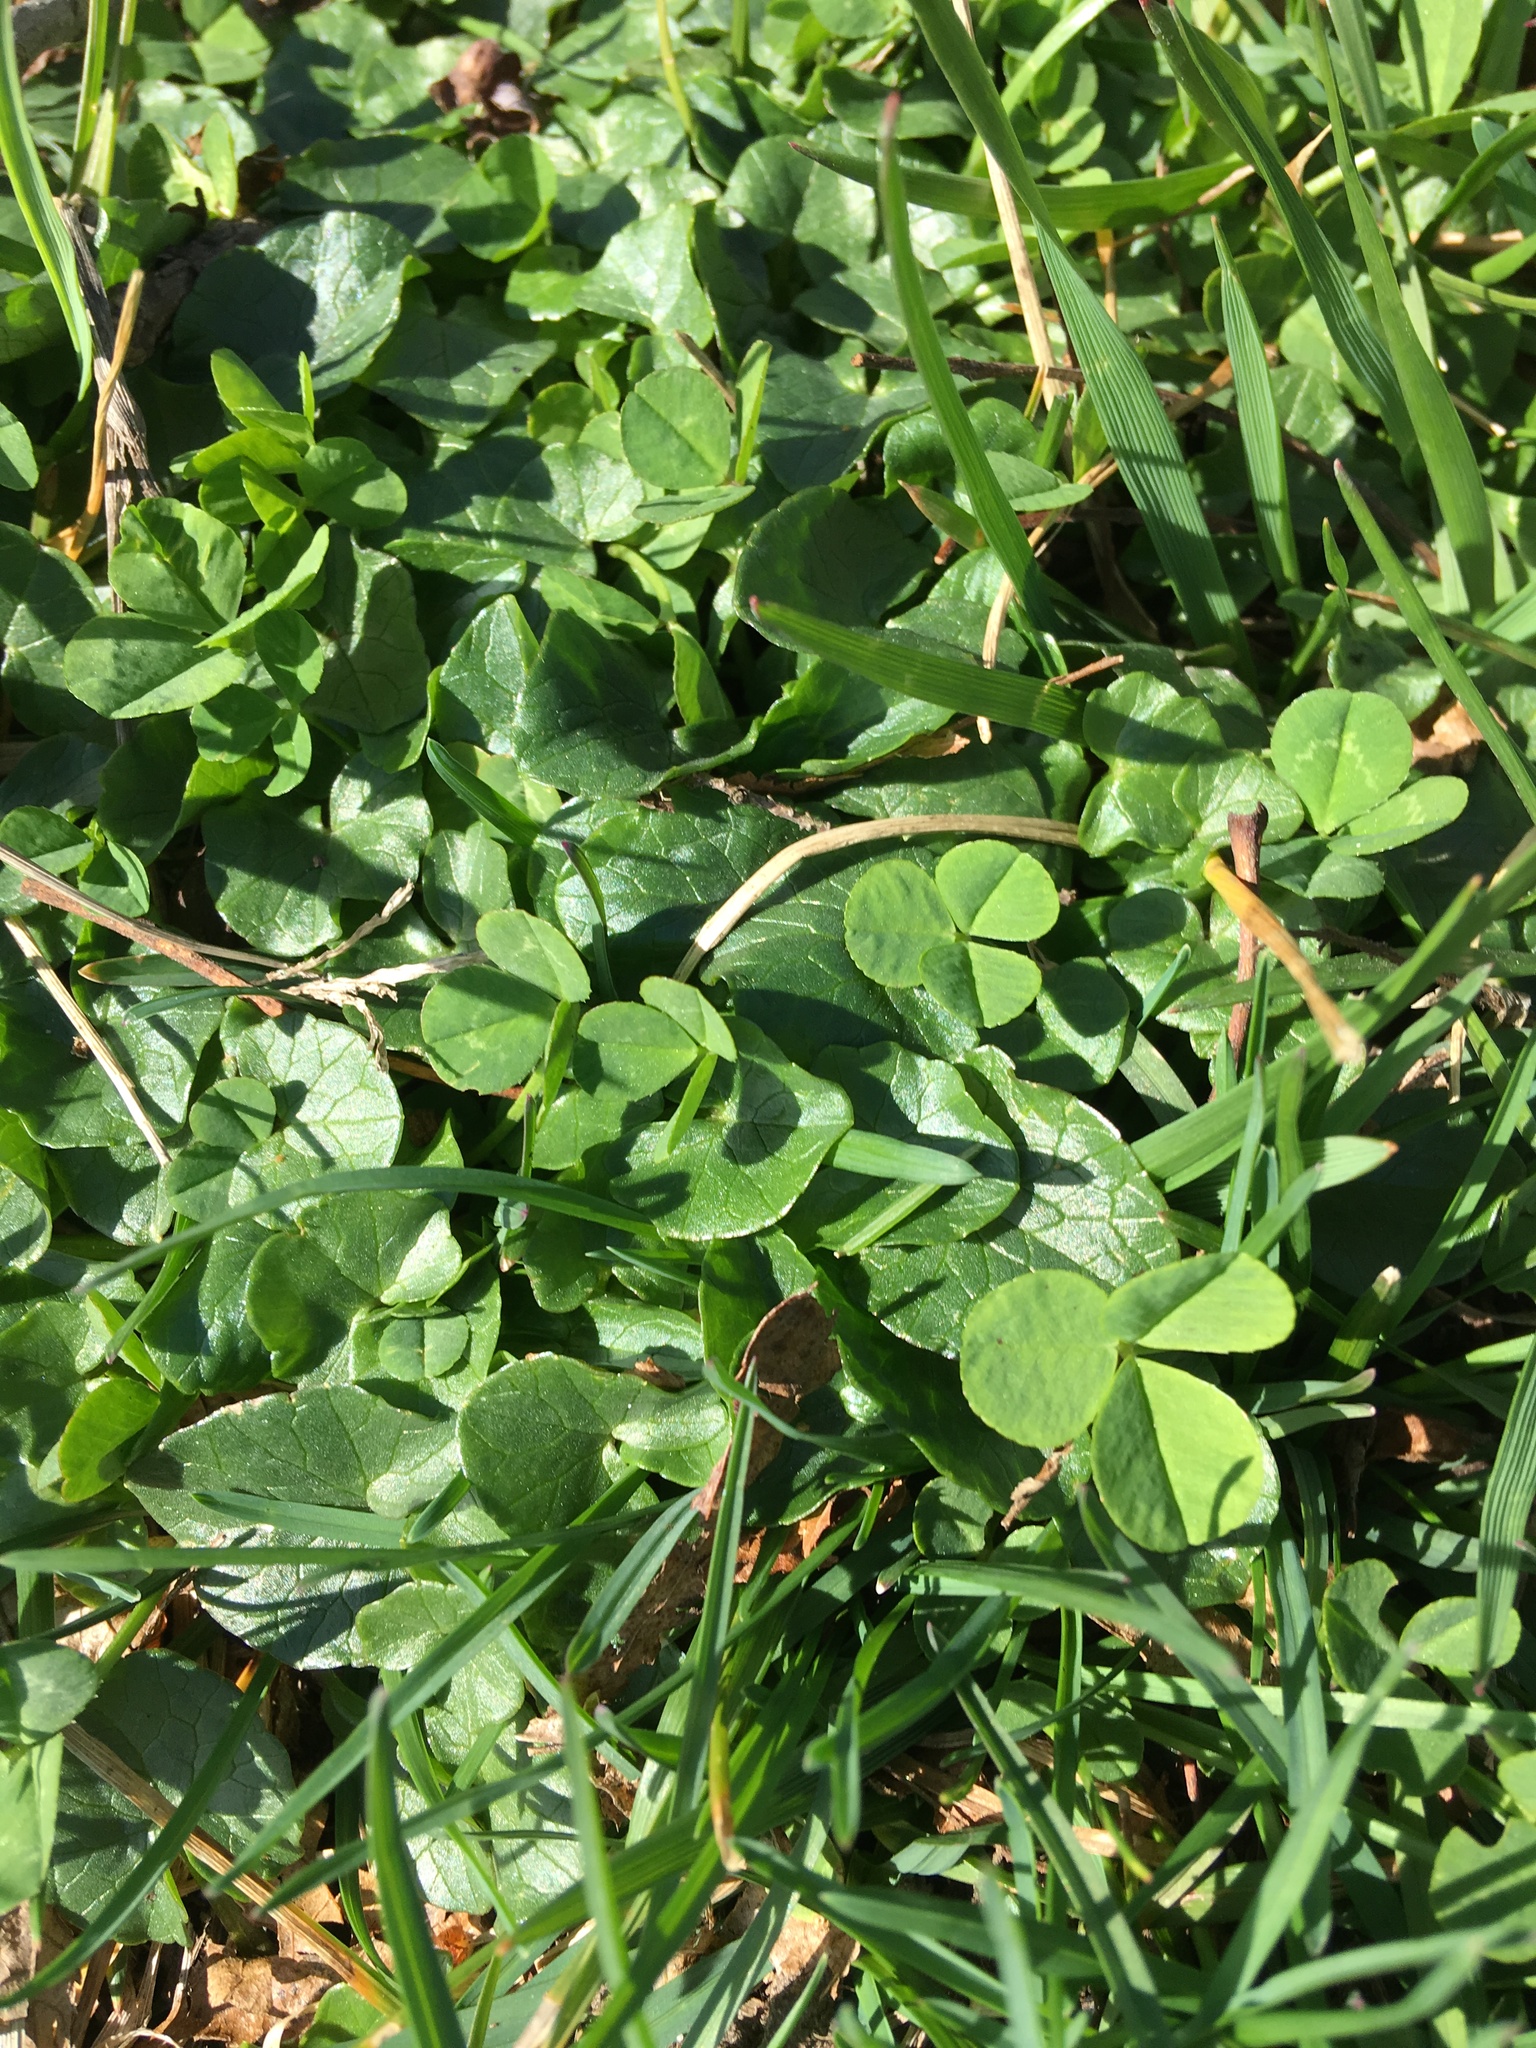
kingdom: Plantae
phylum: Tracheophyta
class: Magnoliopsida
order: Ranunculales
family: Ranunculaceae
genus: Ficaria
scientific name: Ficaria verna
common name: Lesser celandine
